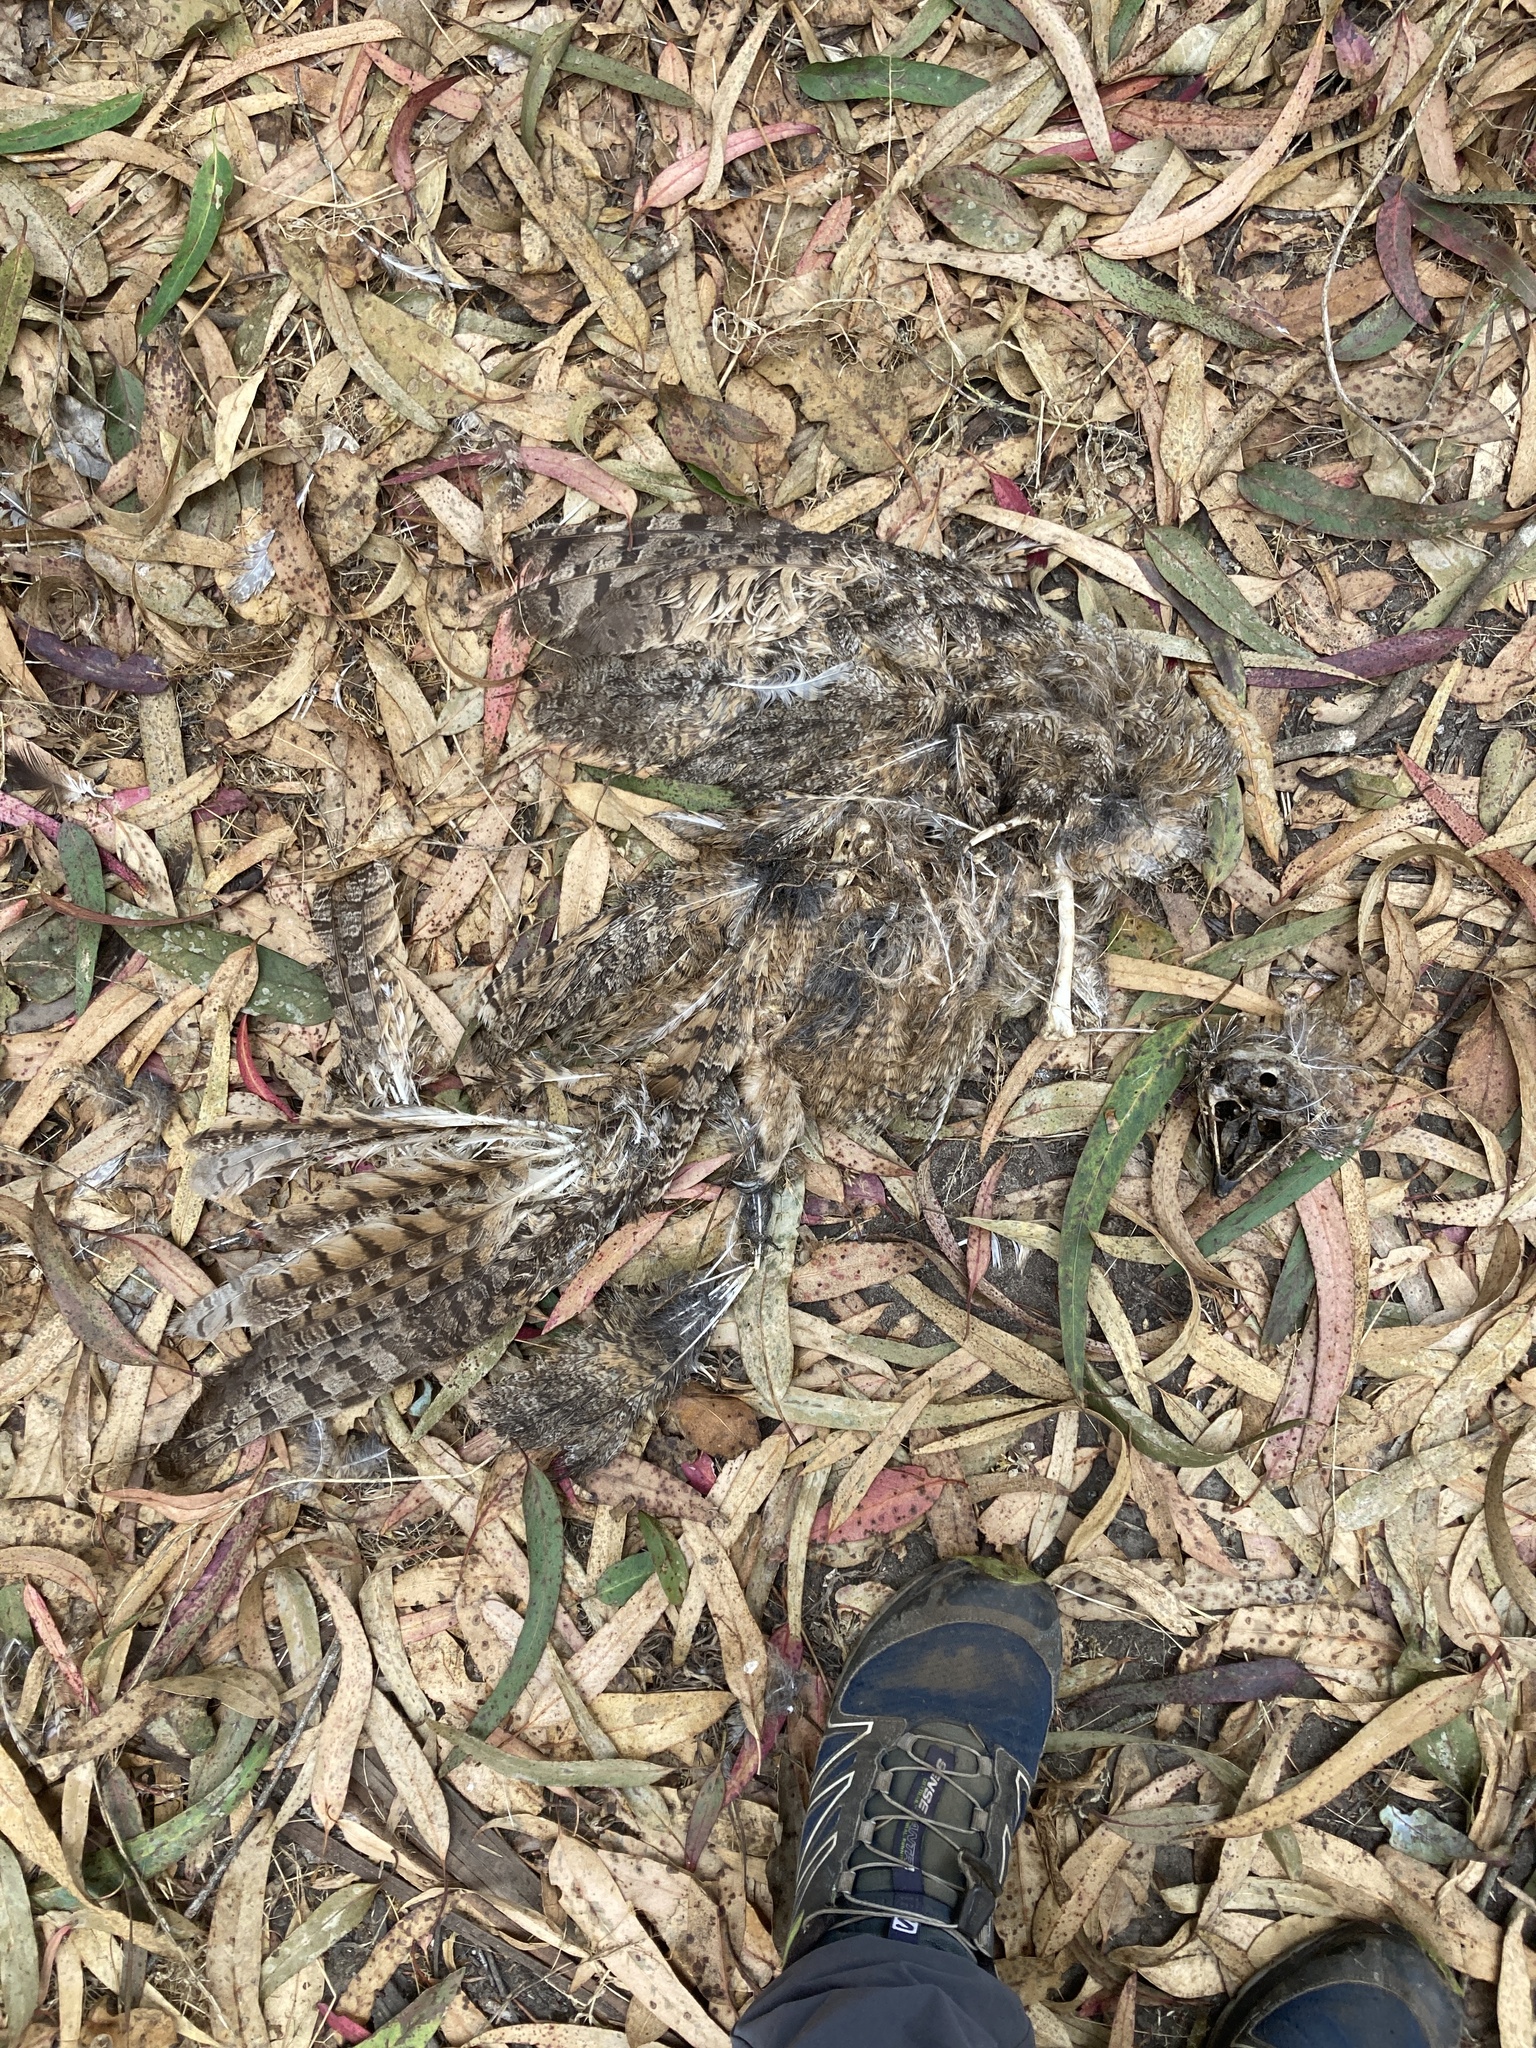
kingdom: Animalia
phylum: Chordata
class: Aves
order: Strigiformes
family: Strigidae
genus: Bubo
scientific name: Bubo virginianus
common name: Great horned owl
